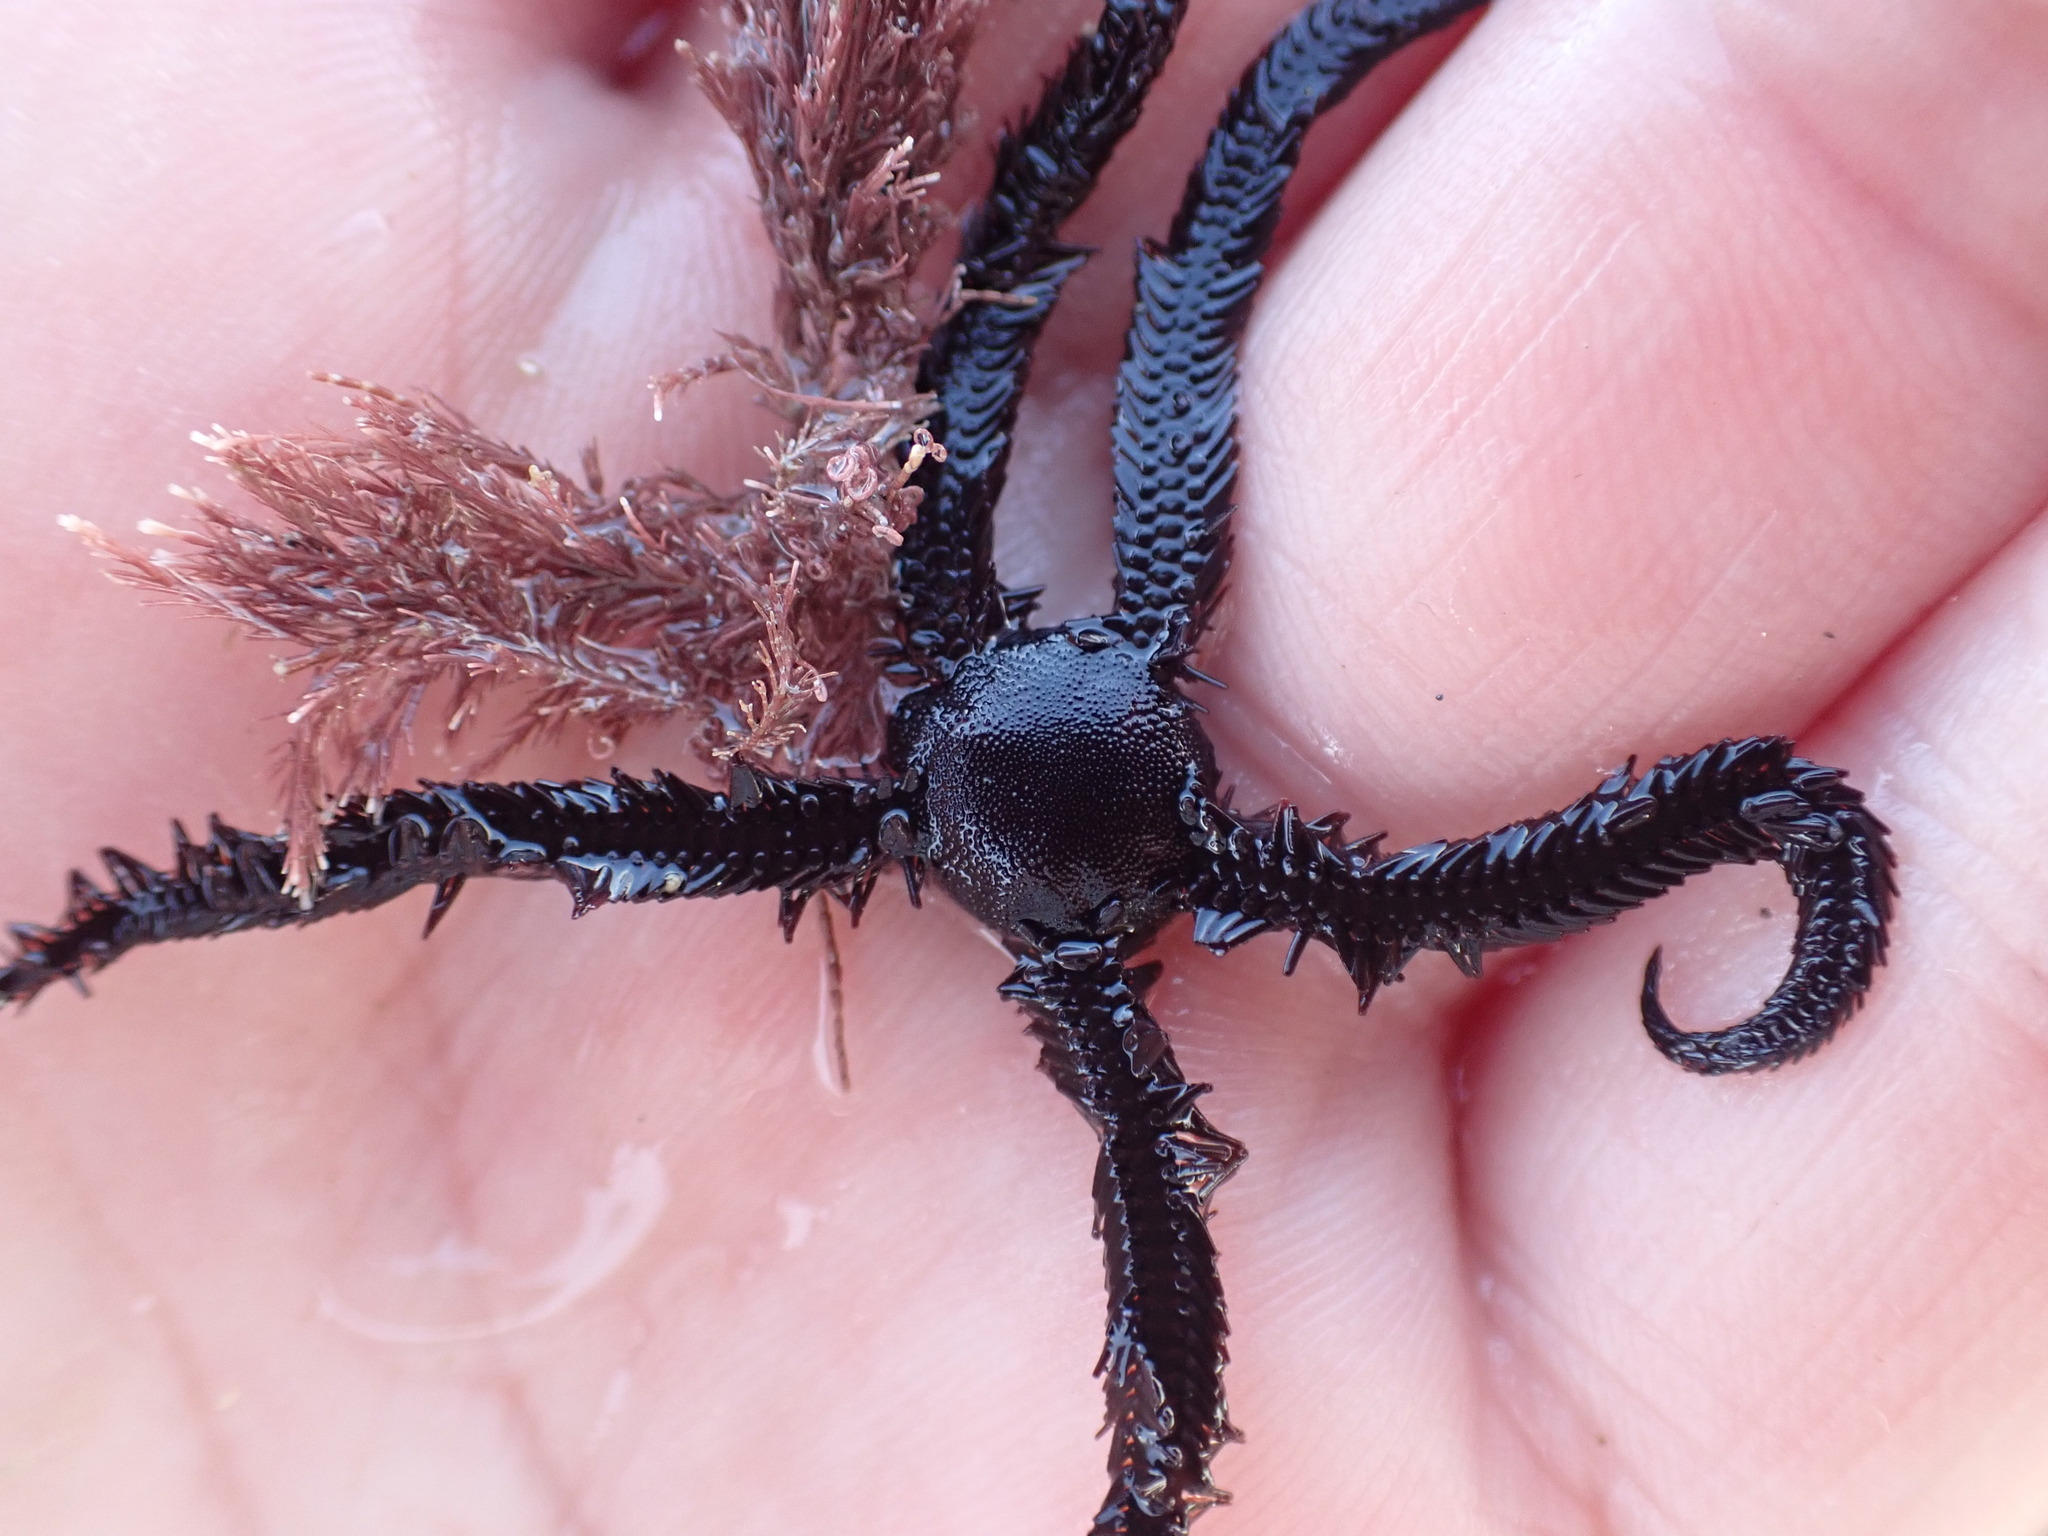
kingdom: Animalia
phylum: Echinodermata
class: Ophiuroidea
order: Ophiacanthida
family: Ophiopteridae
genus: Ophiopteris
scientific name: Ophiopteris antipodum
